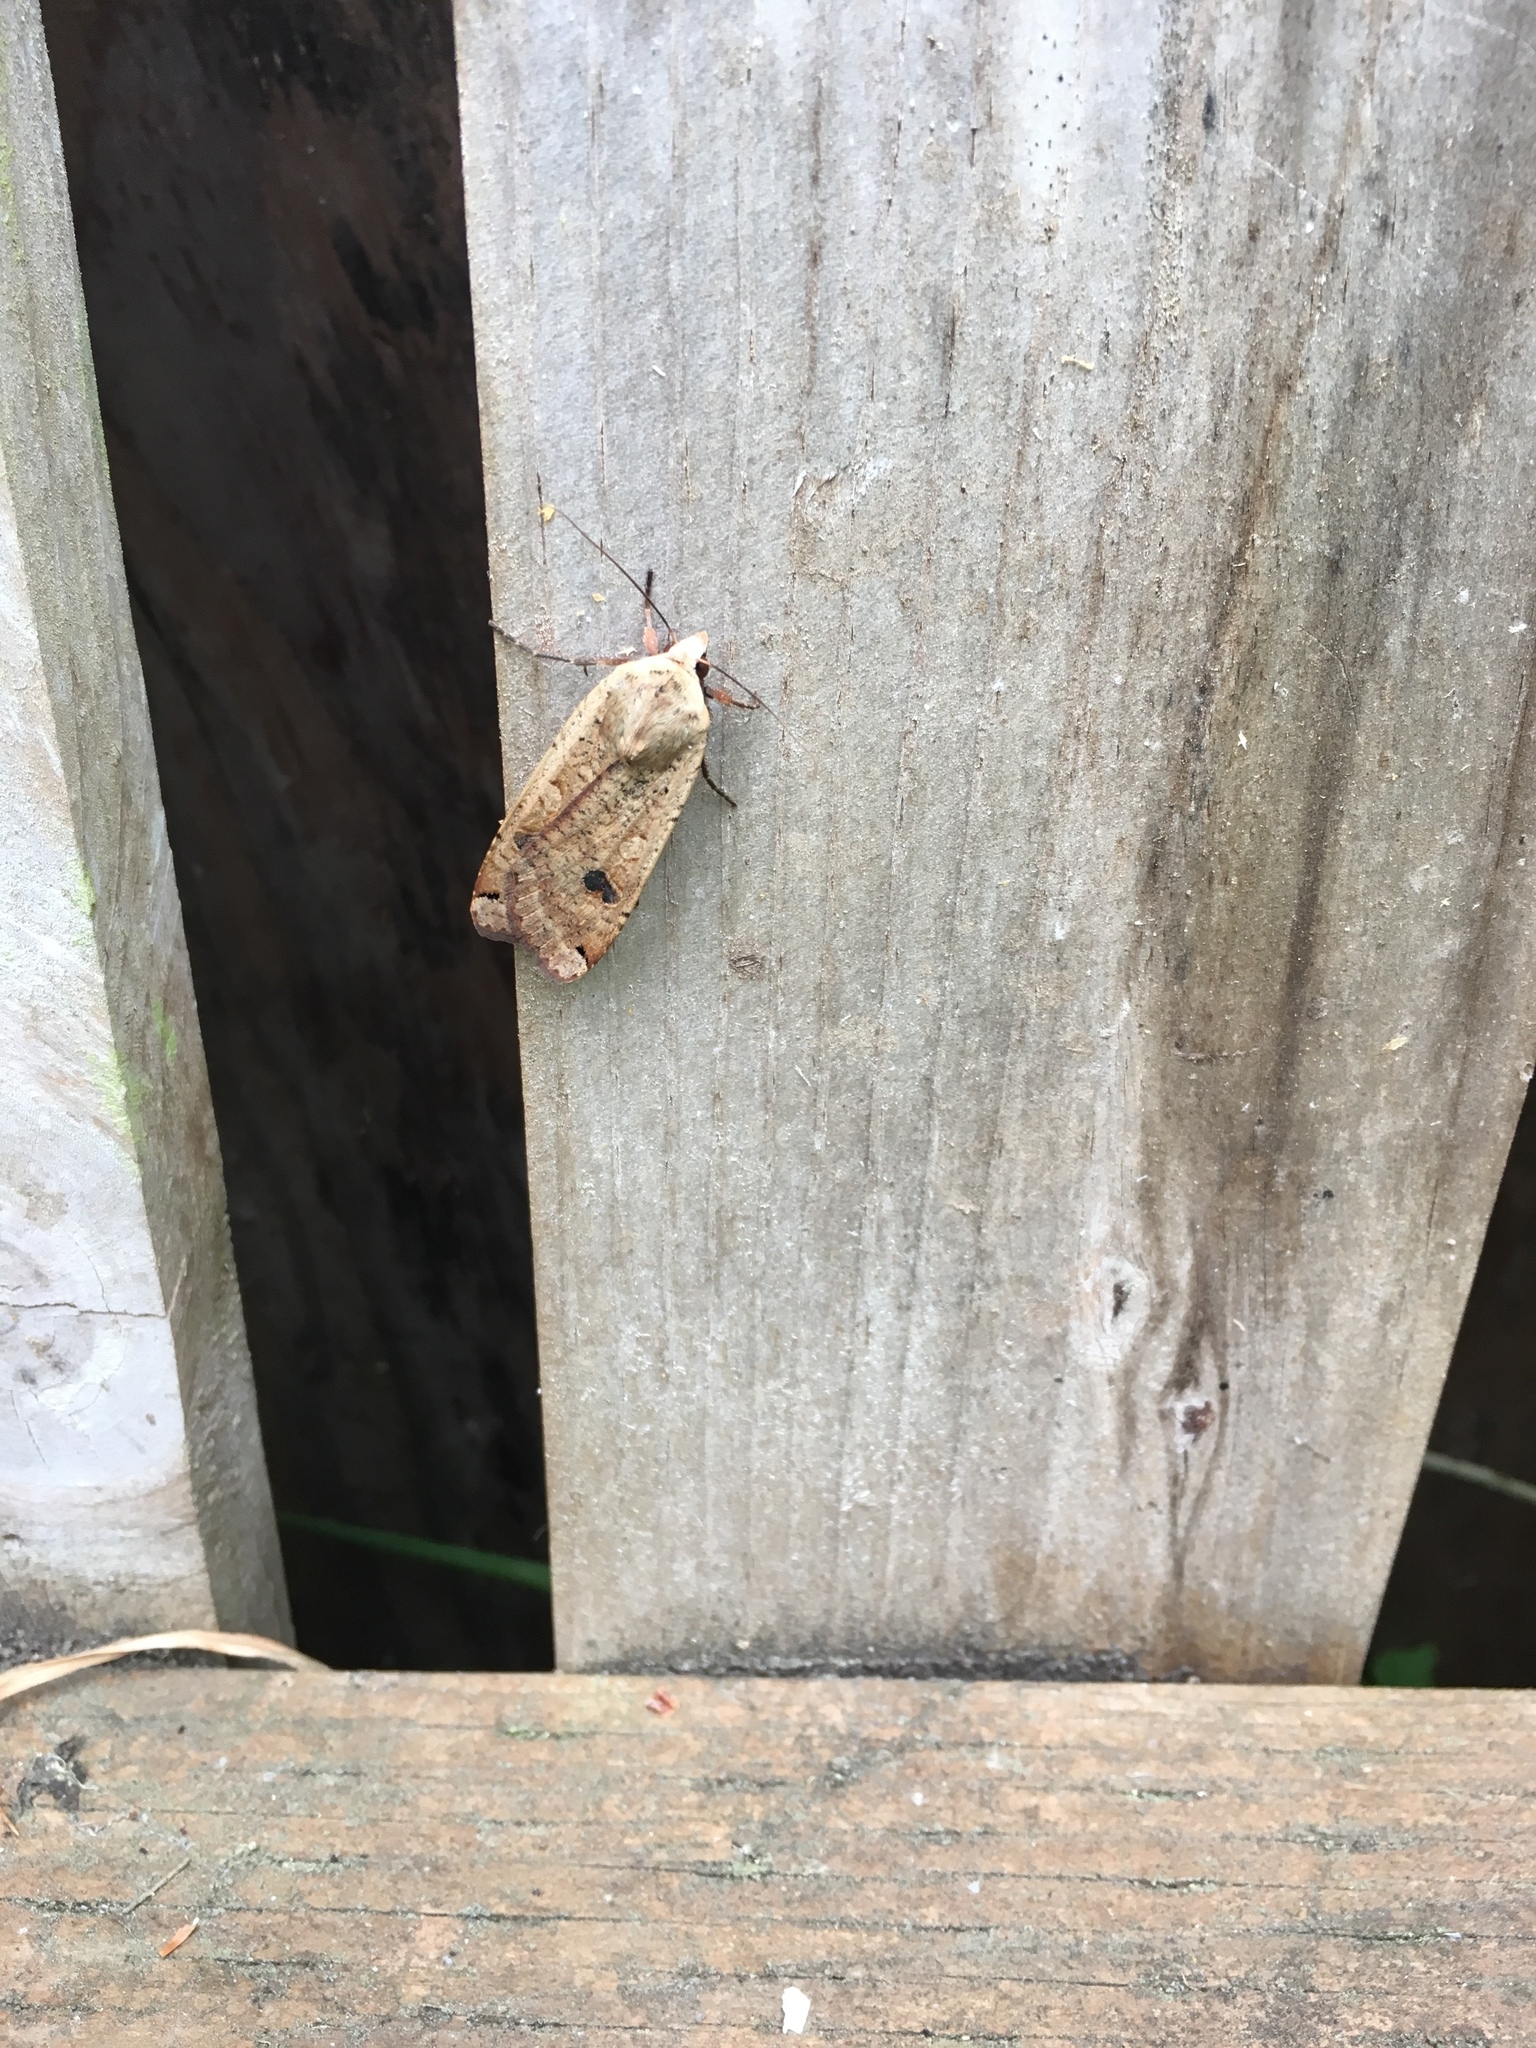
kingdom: Animalia
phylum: Arthropoda
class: Insecta
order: Lepidoptera
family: Noctuidae
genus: Noctua
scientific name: Noctua pronuba
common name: Large yellow underwing
